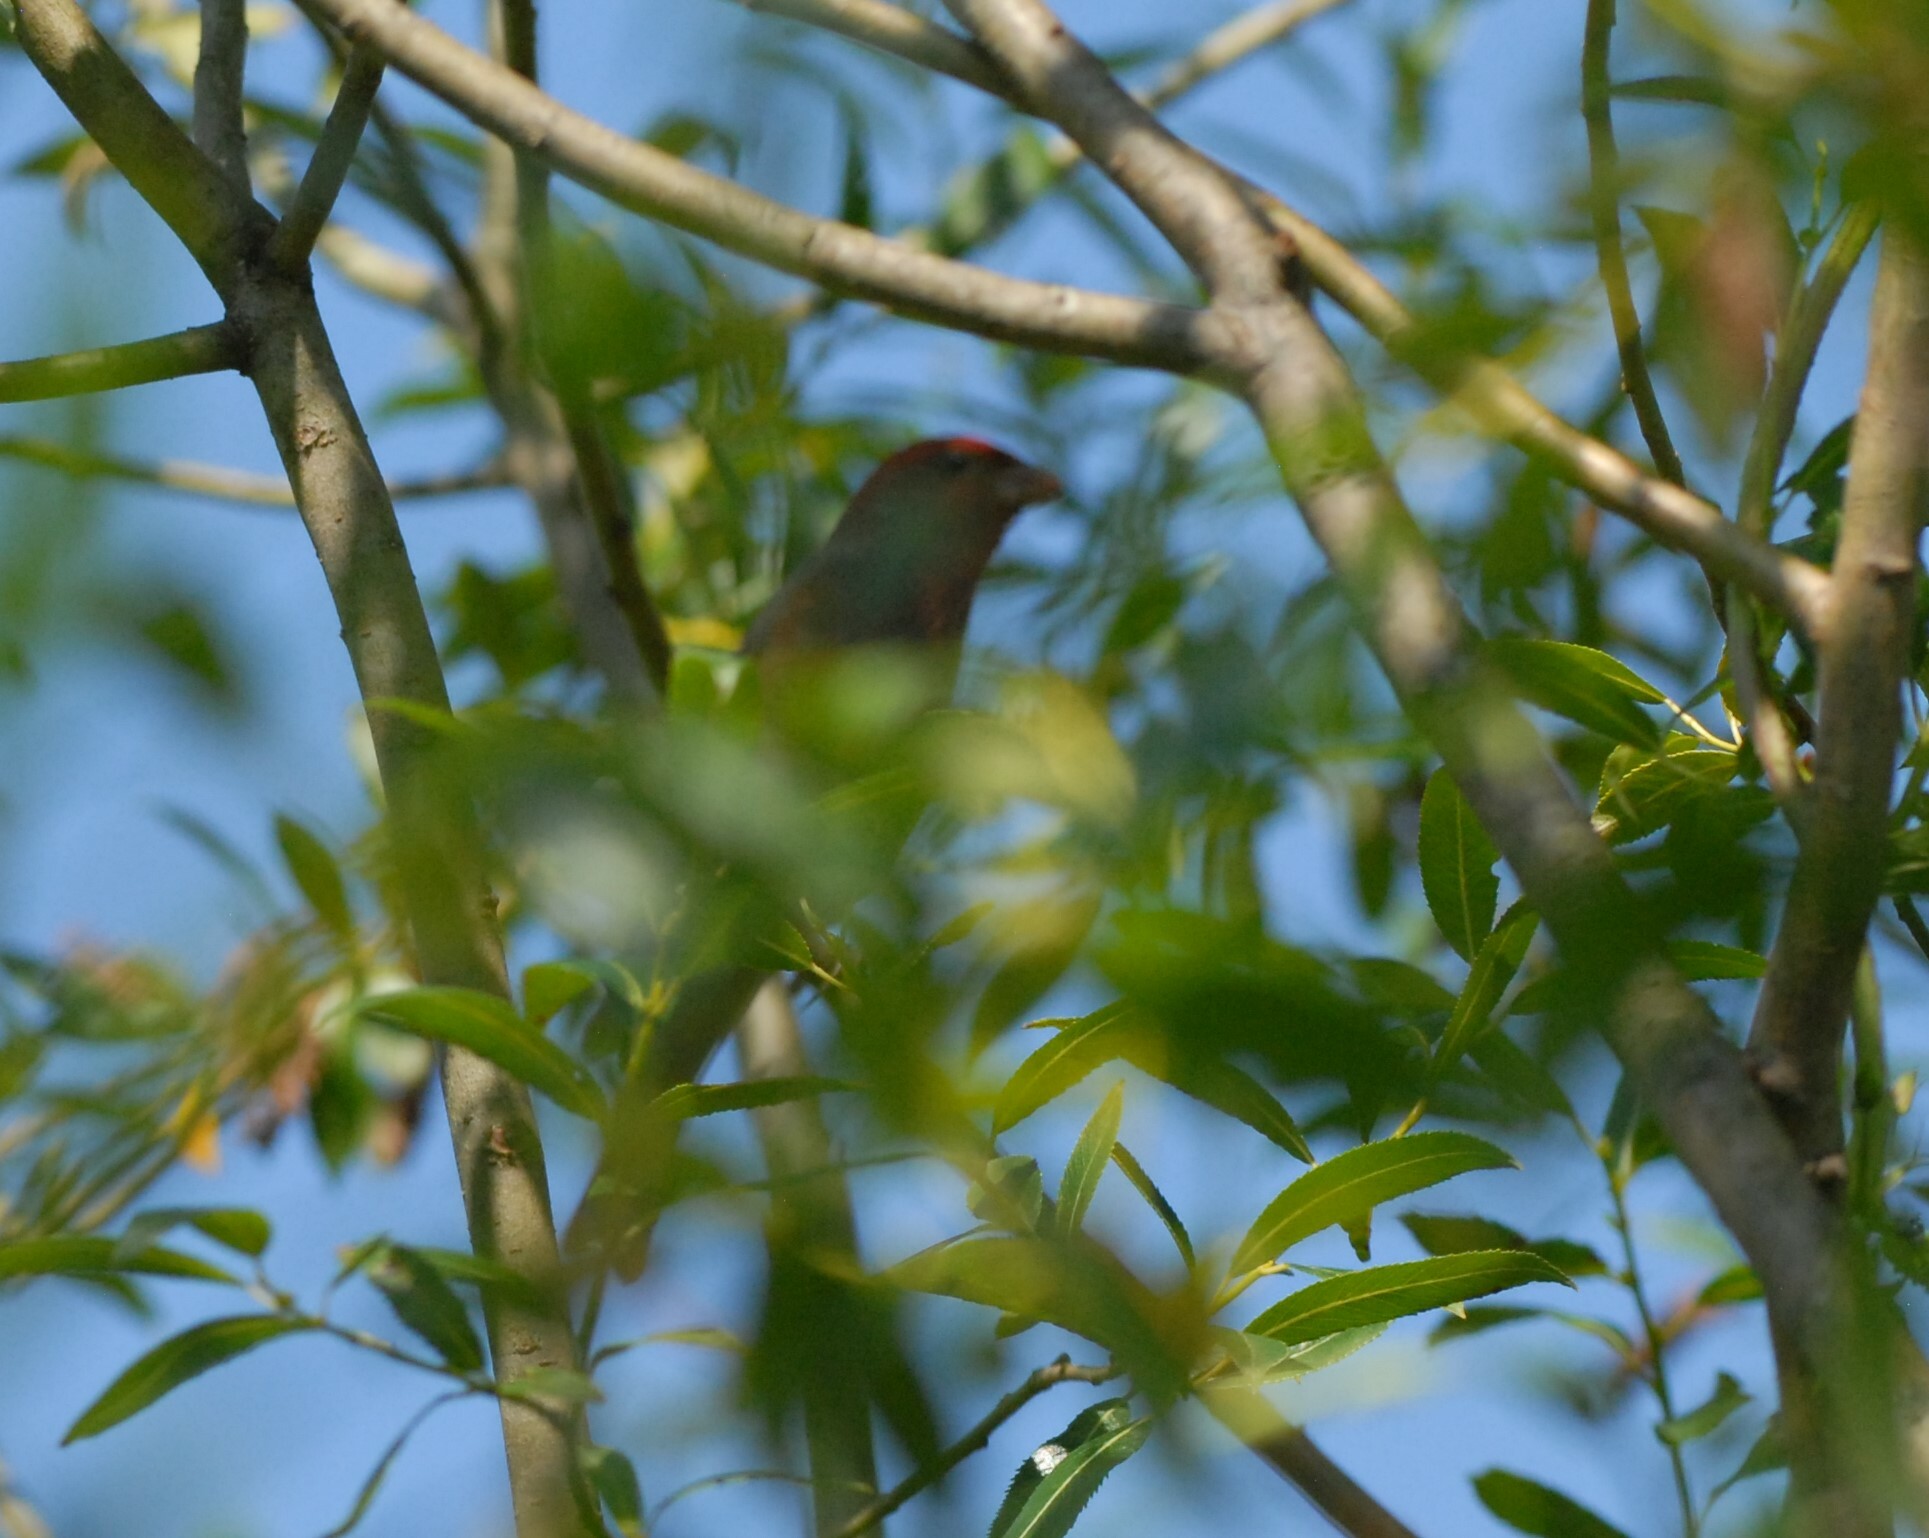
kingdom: Animalia
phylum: Chordata
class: Aves
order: Passeriformes
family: Fringillidae
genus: Carpodacus
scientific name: Carpodacus erythrinus
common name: Common rosefinch
